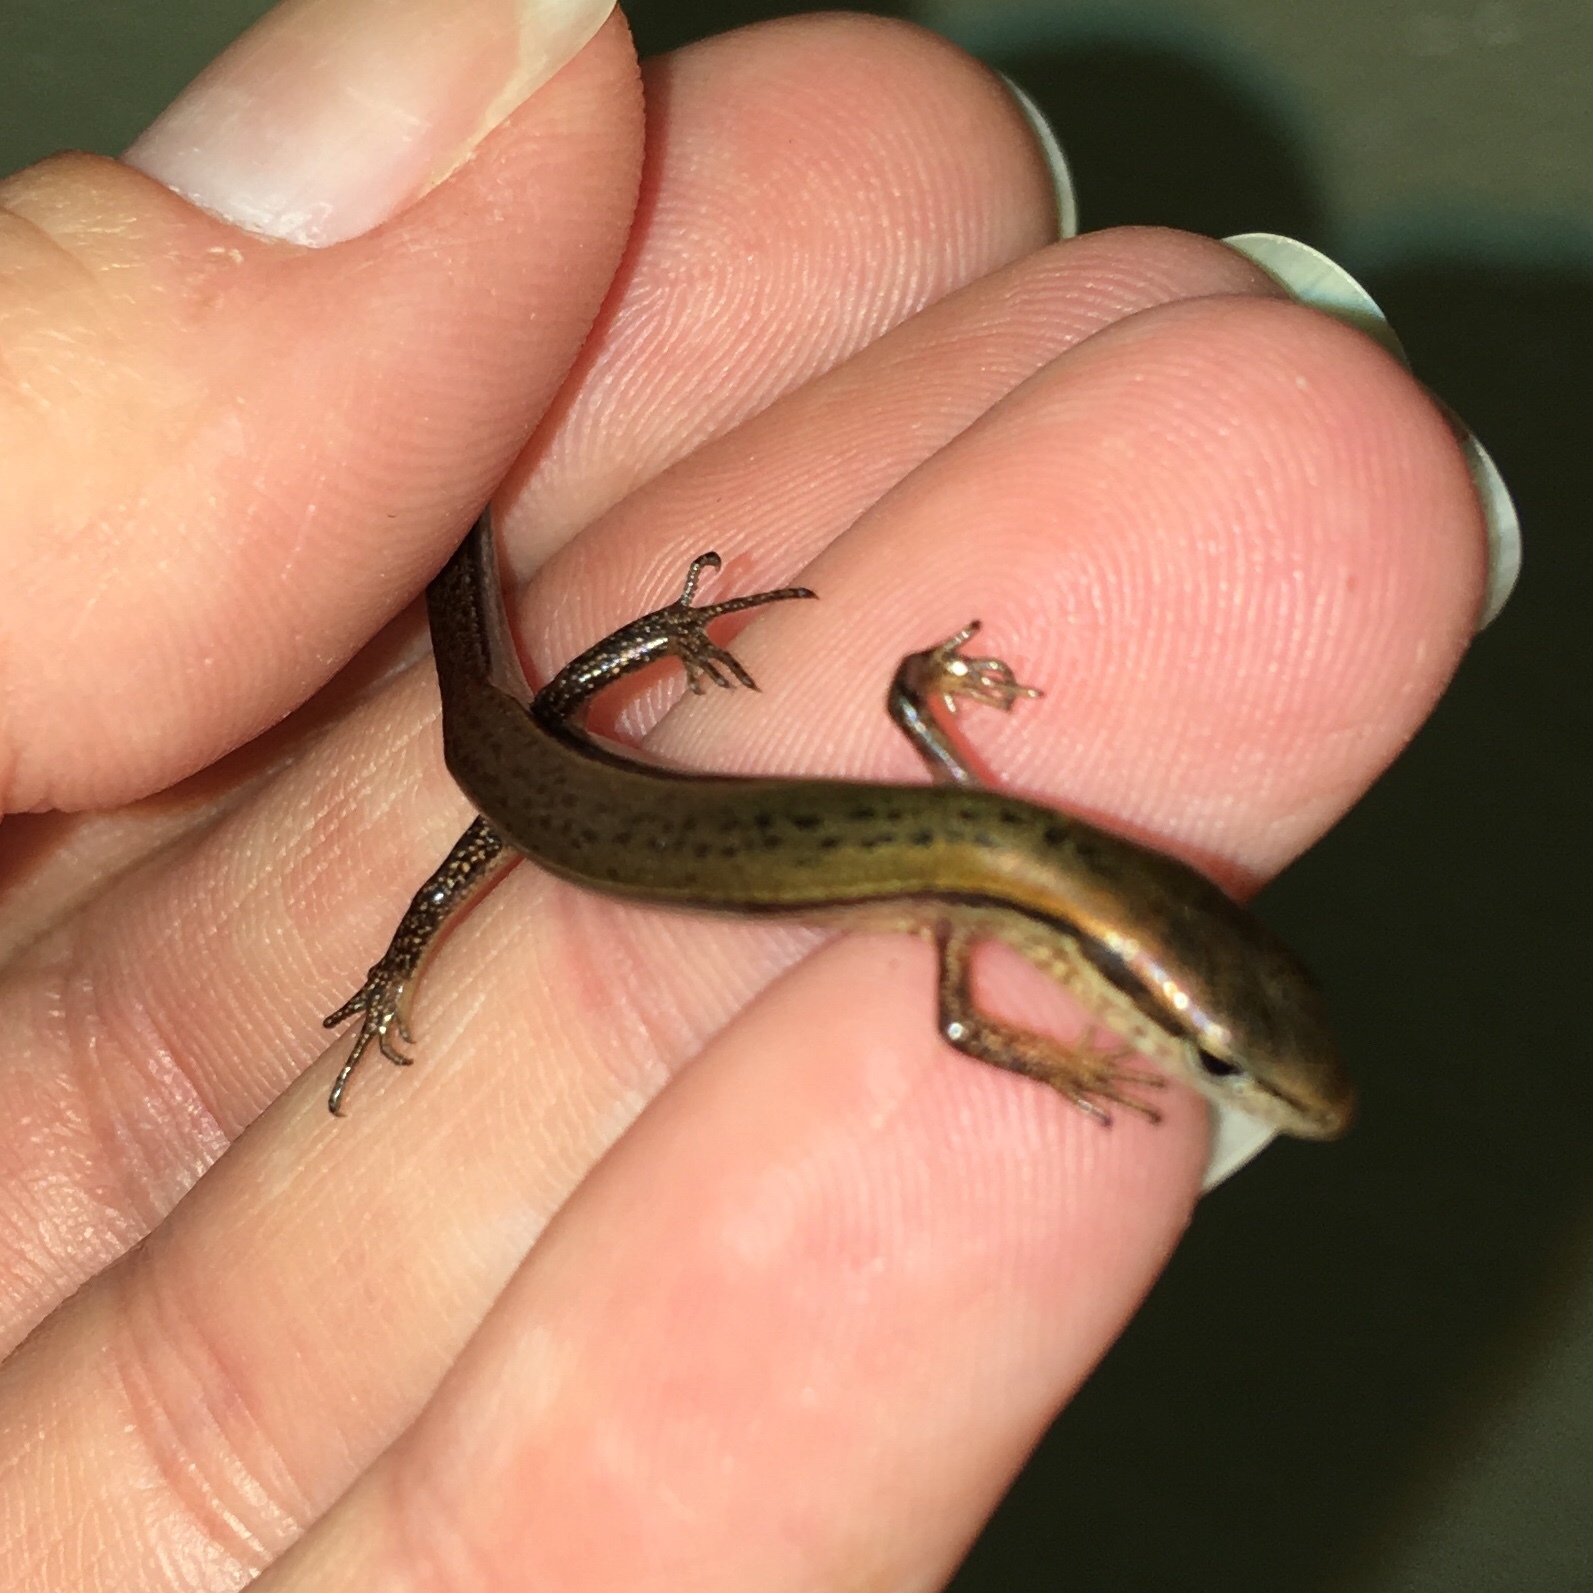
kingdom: Animalia
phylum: Chordata
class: Squamata
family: Scincidae
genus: Scincella
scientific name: Scincella lateralis
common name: Ground skink
